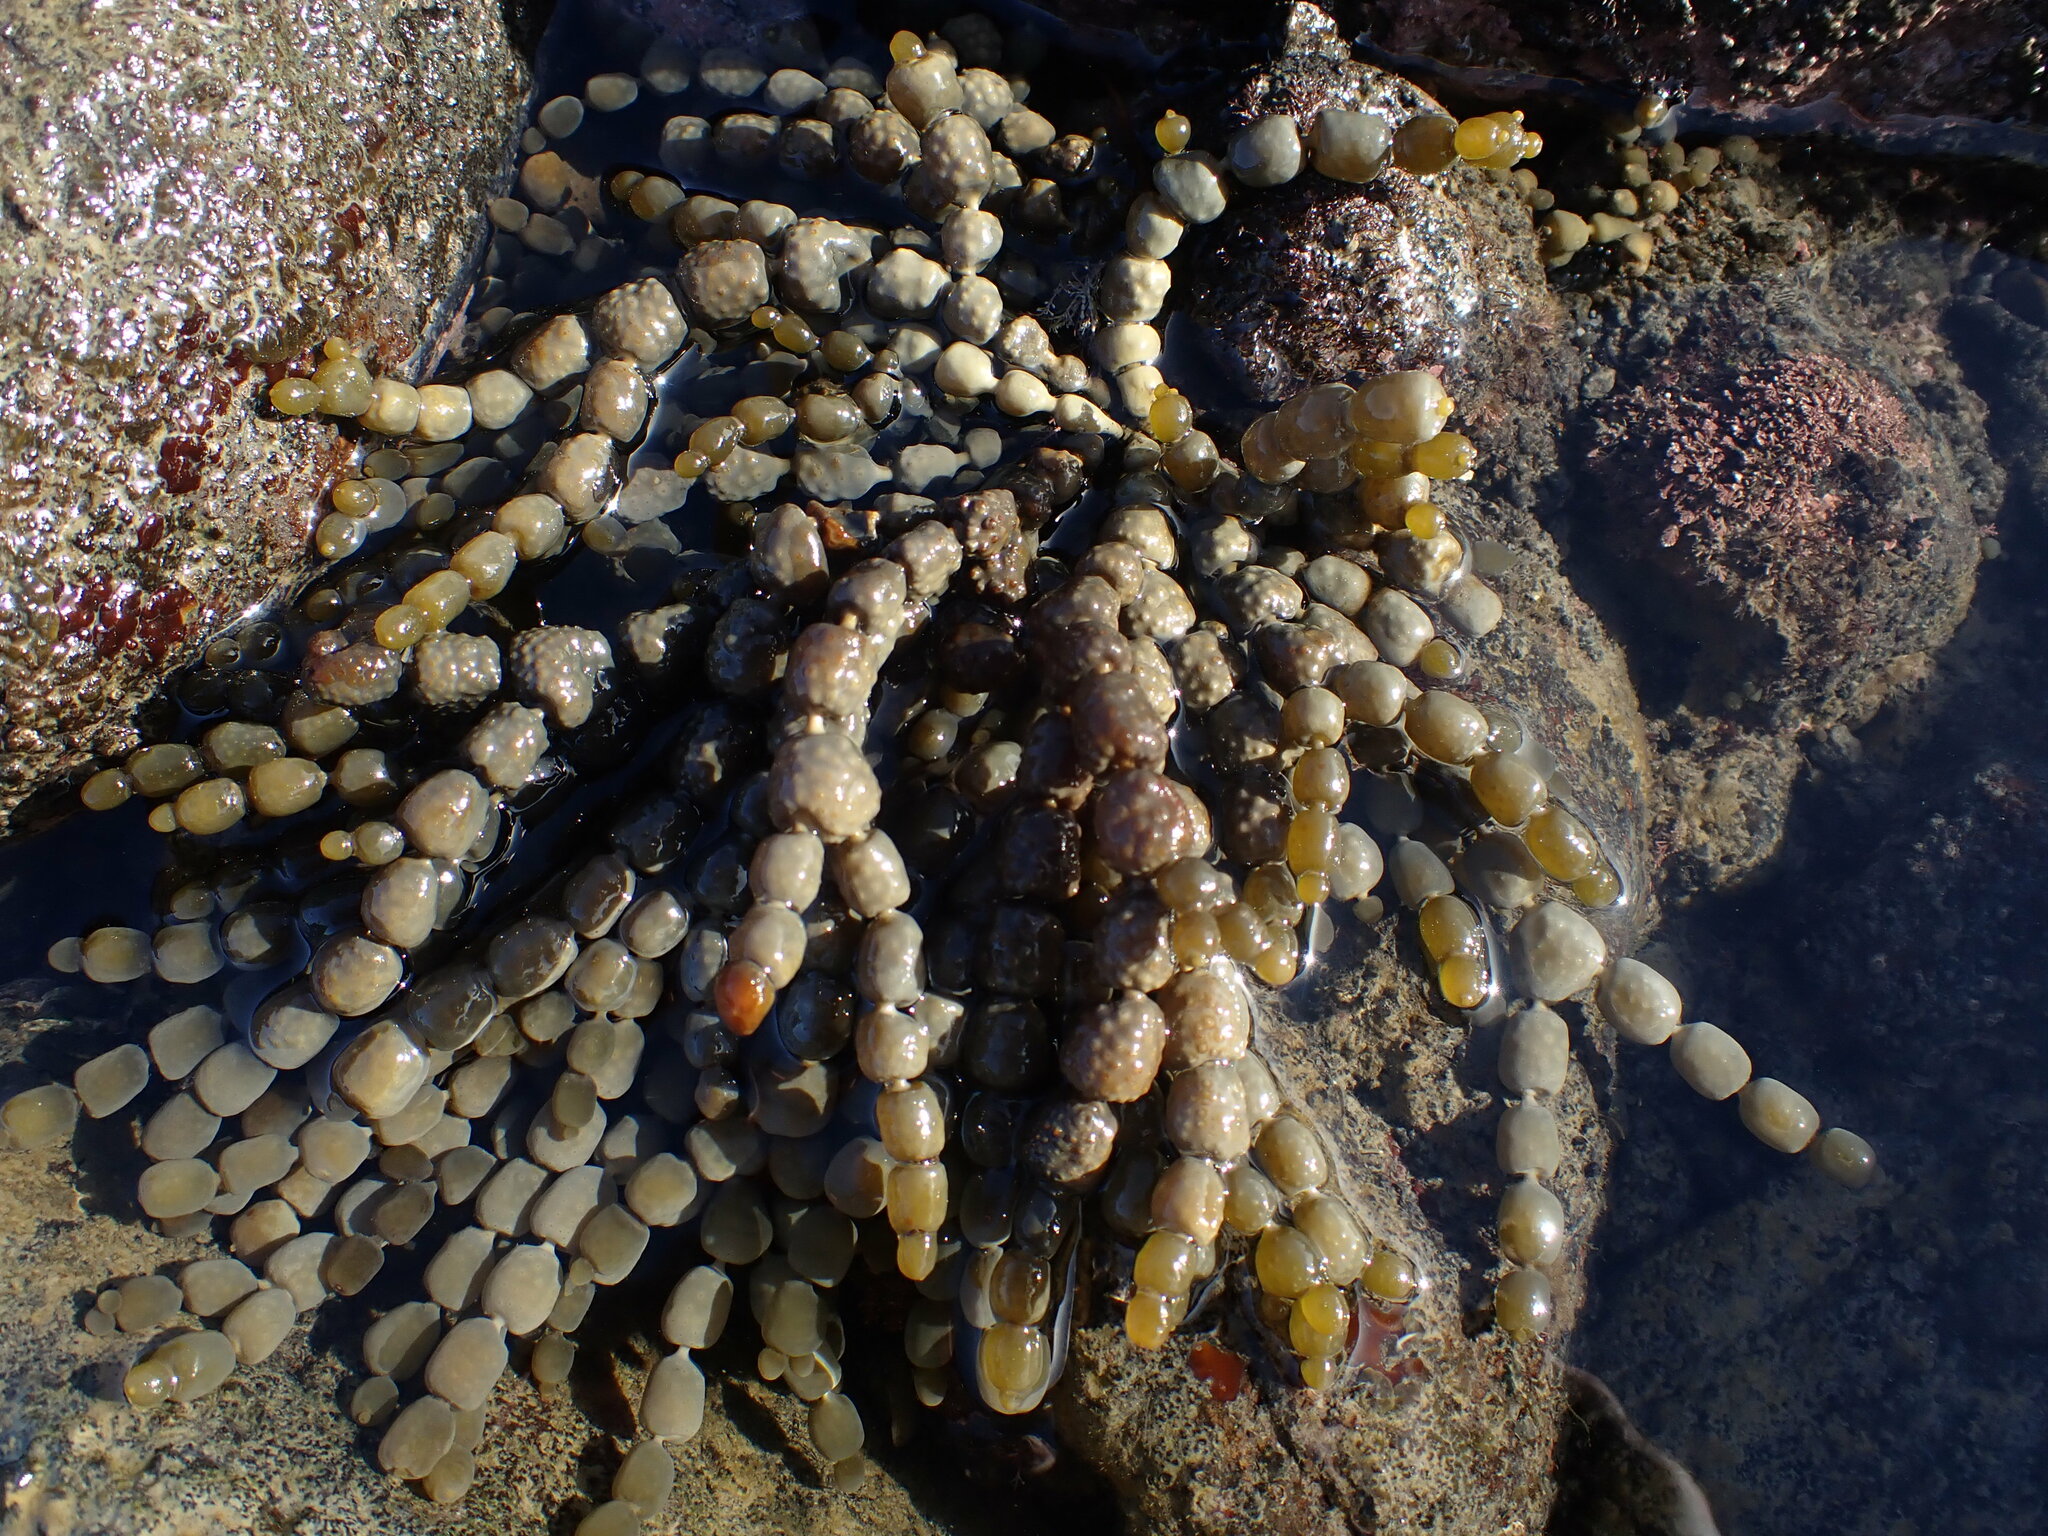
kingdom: Chromista
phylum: Ochrophyta
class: Phaeophyceae
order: Fucales
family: Hormosiraceae
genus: Hormosira
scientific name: Hormosira banksii
